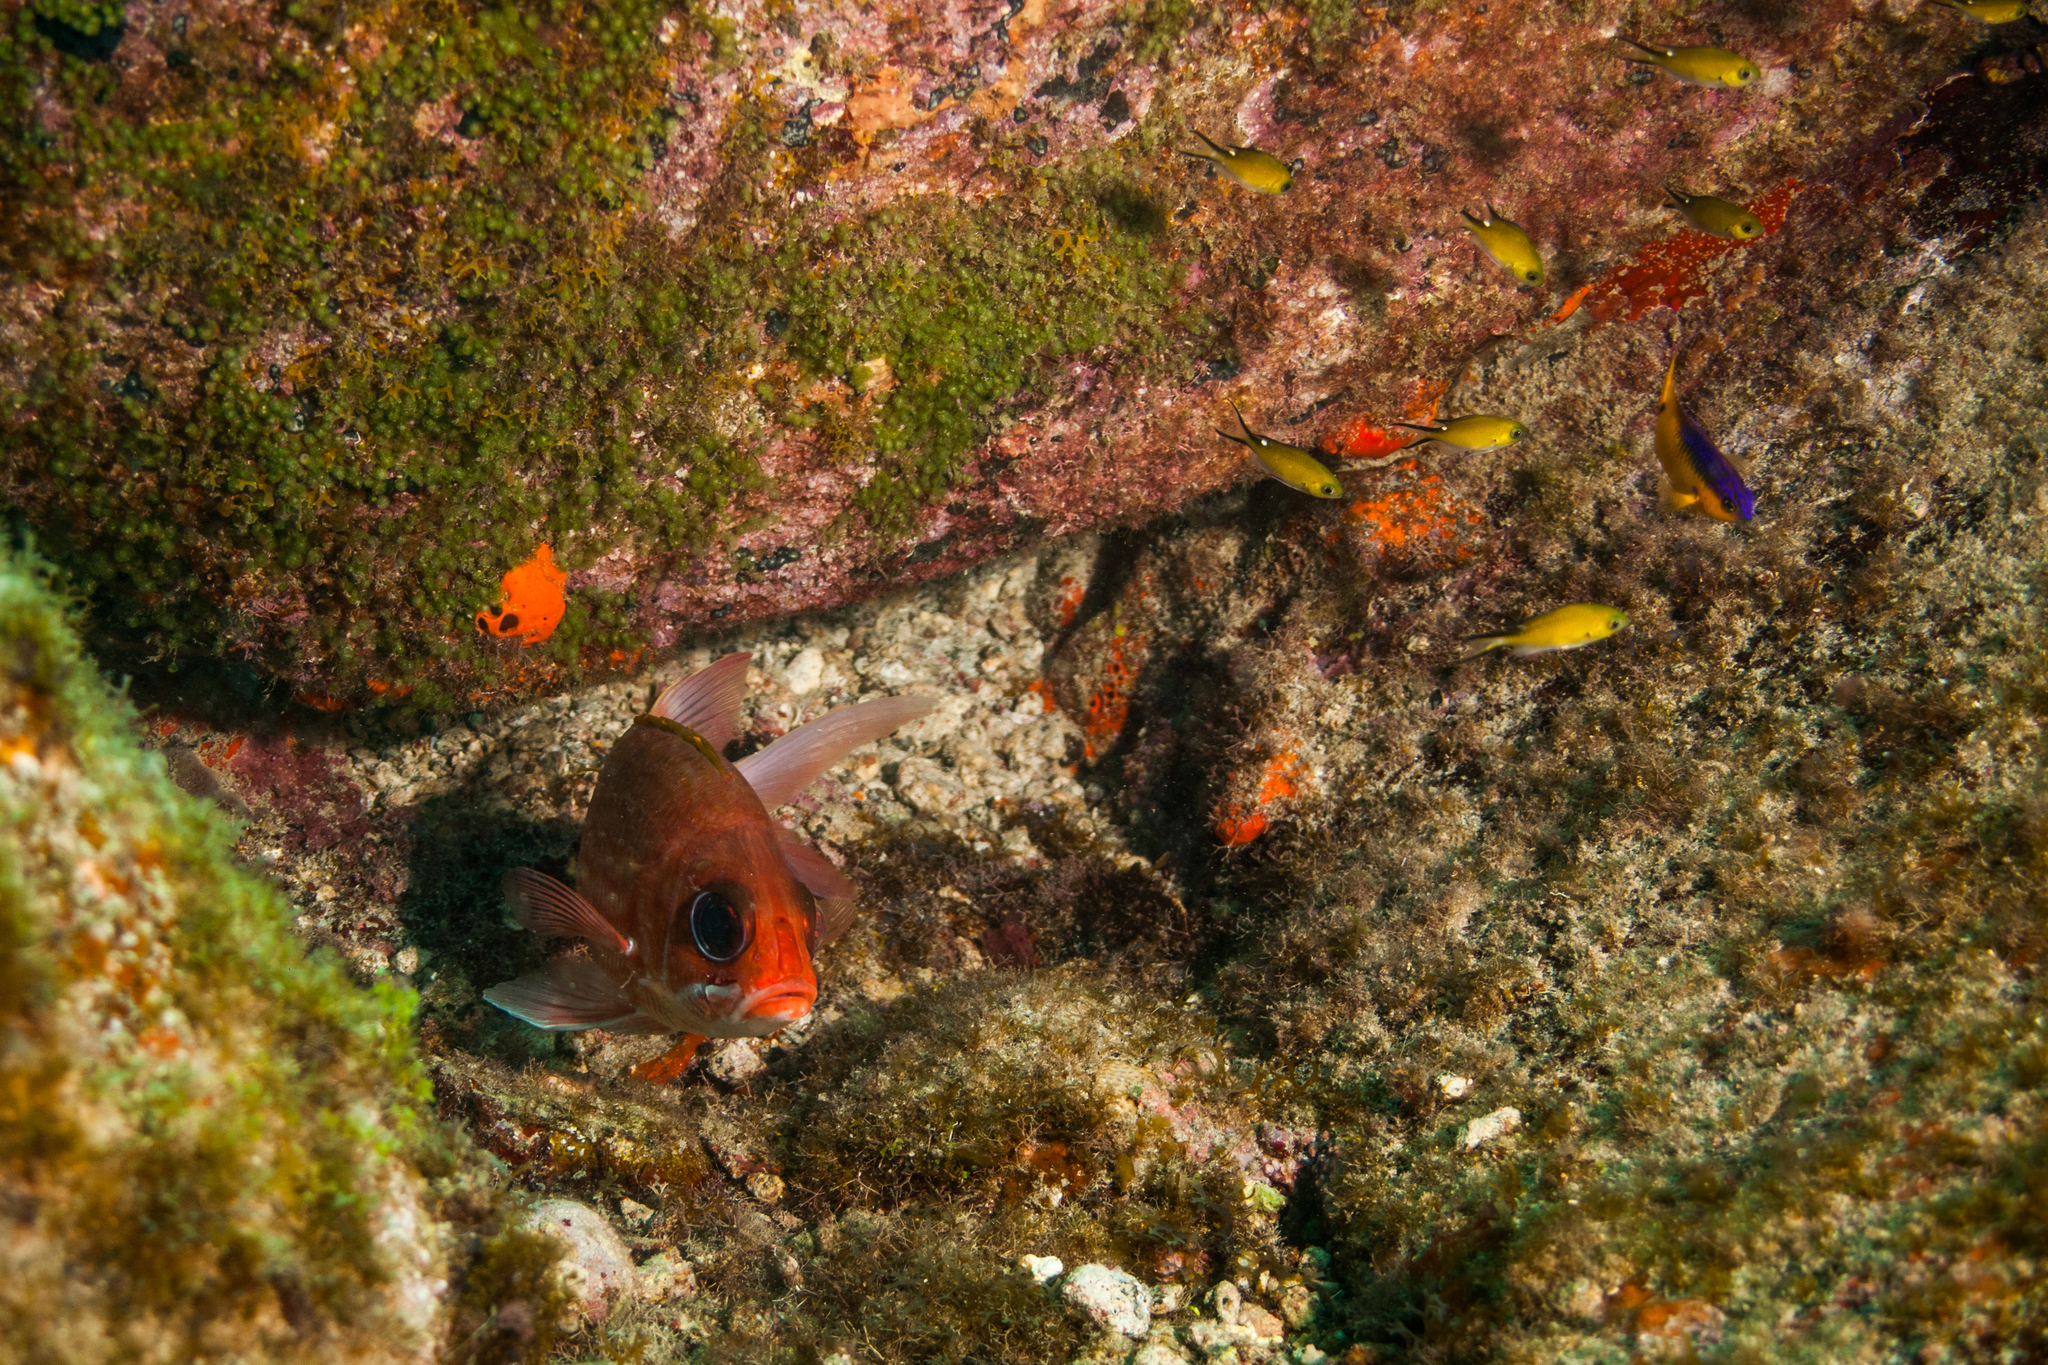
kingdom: Animalia
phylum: Chordata
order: Beryciformes
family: Holocentridae
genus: Holocentrus
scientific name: Holocentrus adscensionis
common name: Squirrelfish
